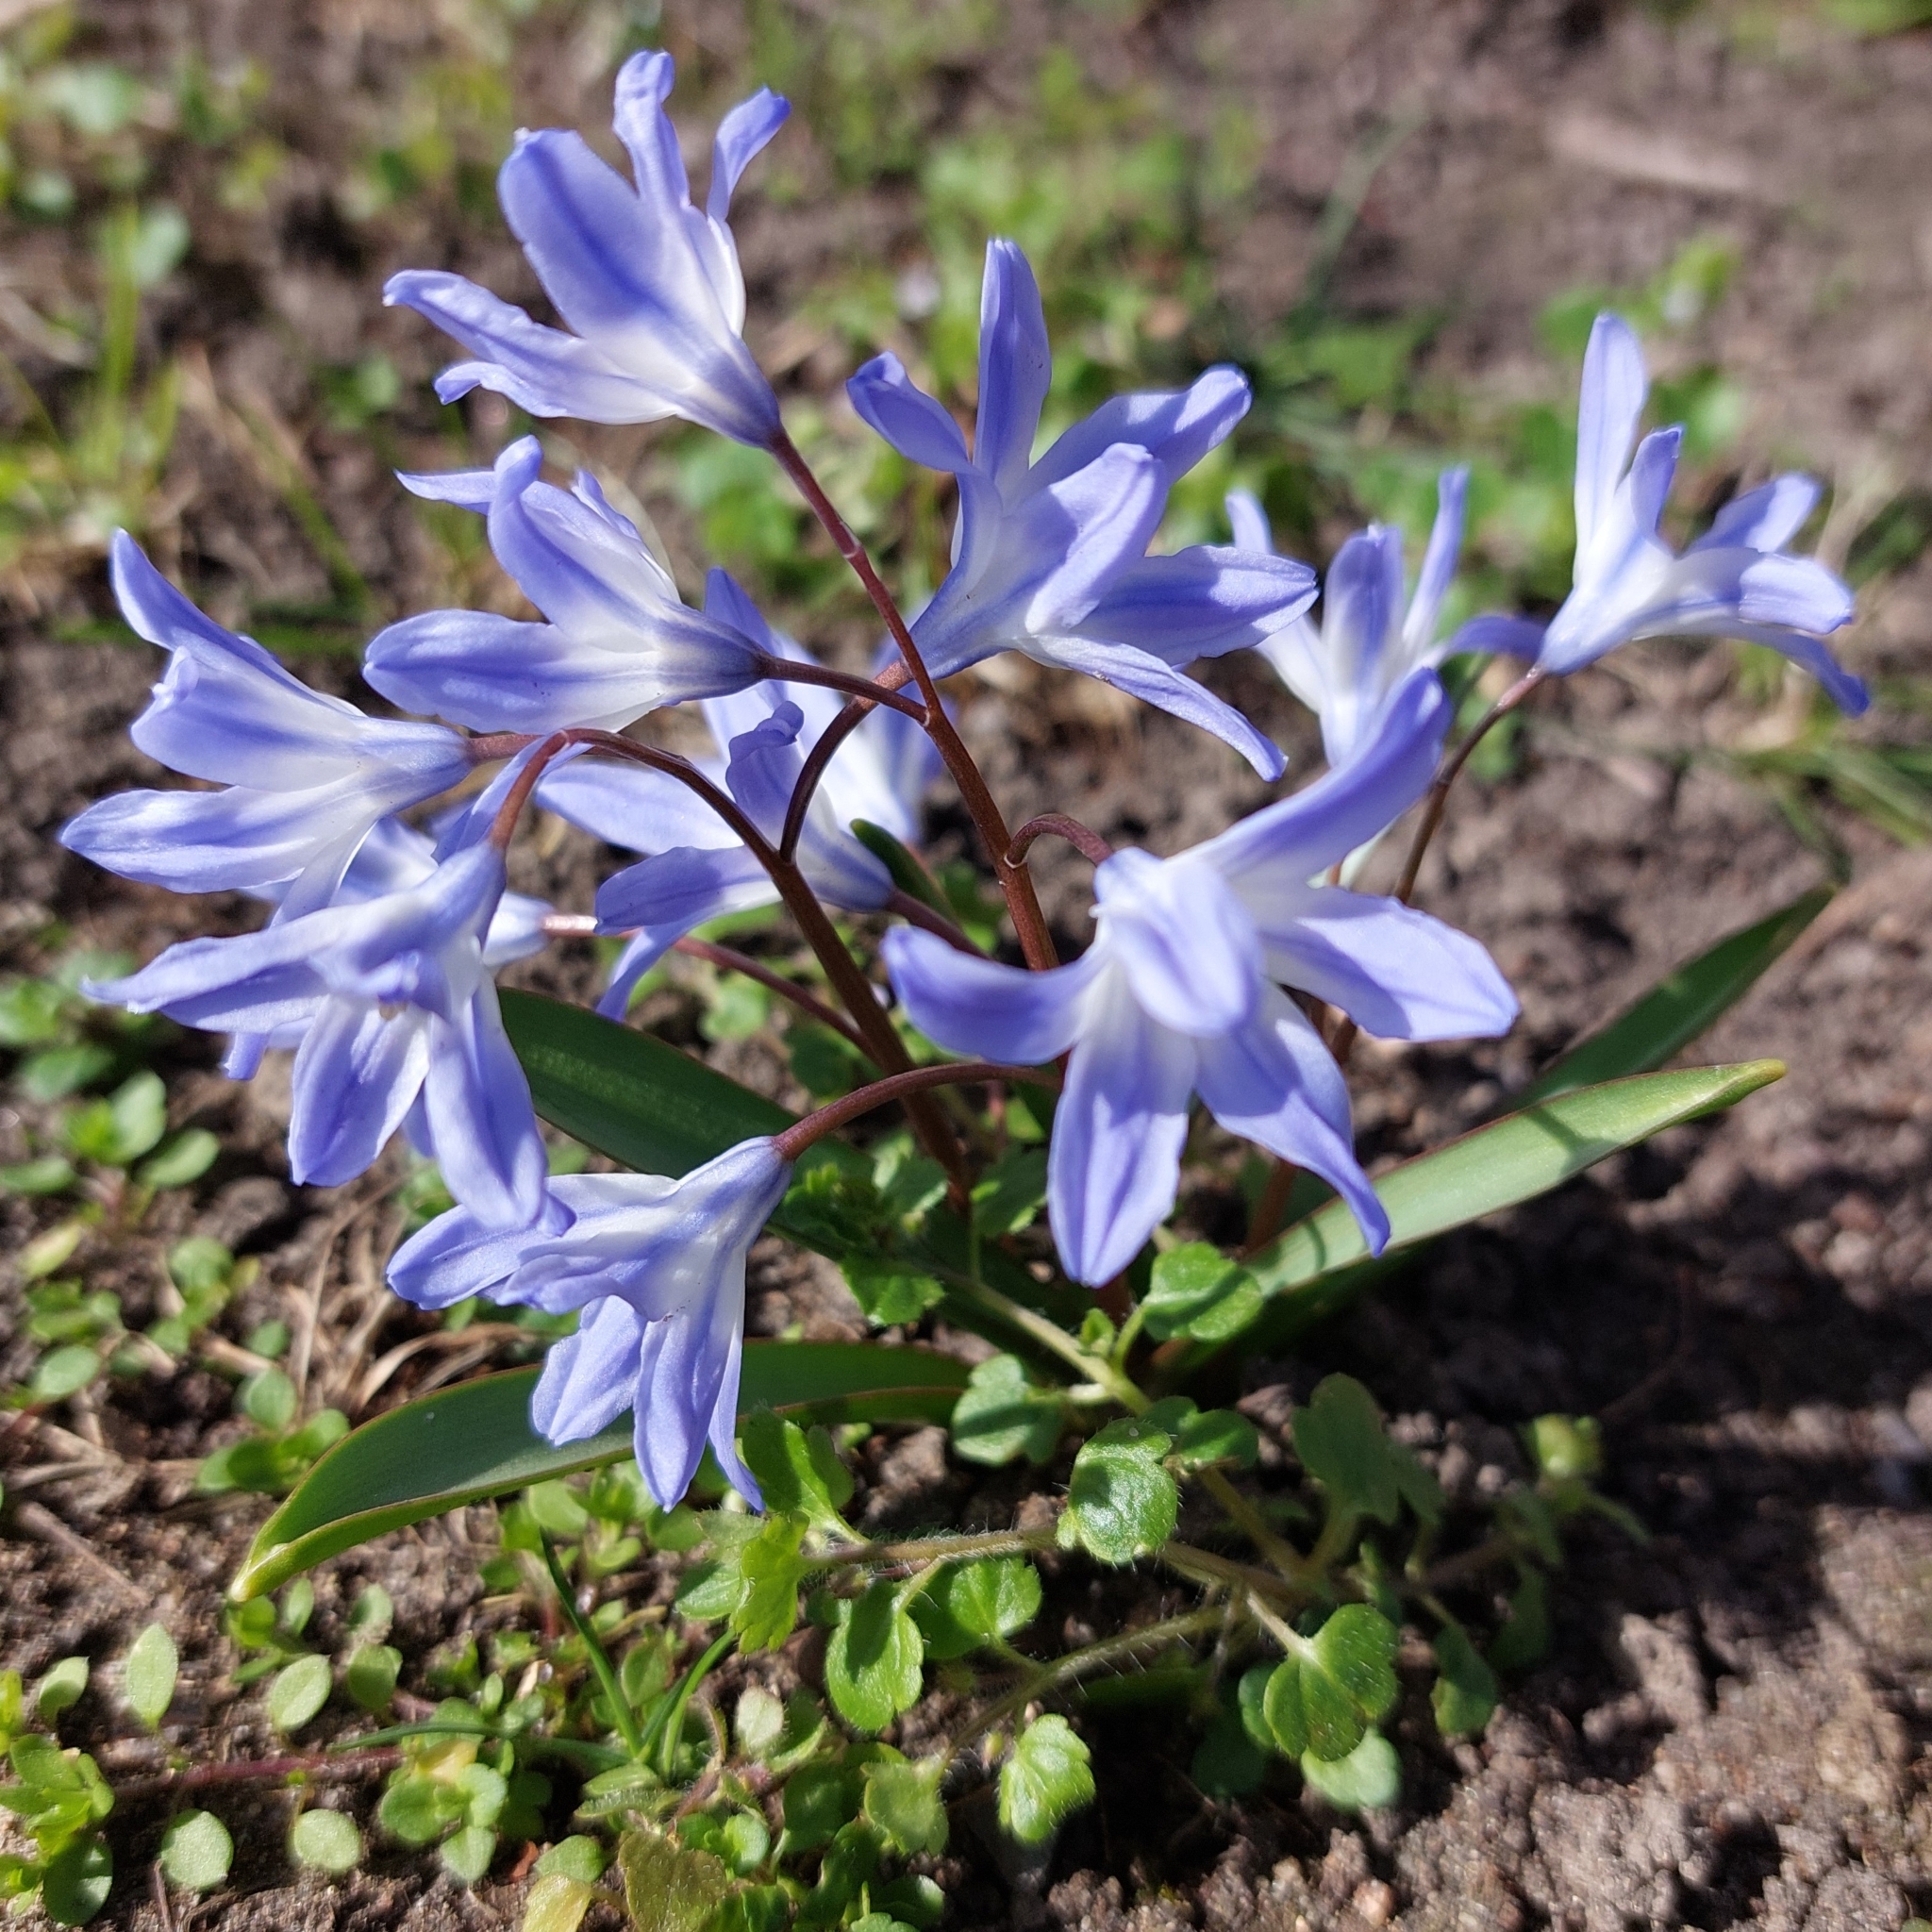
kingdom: Plantae
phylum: Tracheophyta
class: Liliopsida
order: Asparagales
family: Asparagaceae
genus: Scilla
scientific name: Scilla forbesii
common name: Glory-of-the-snow
